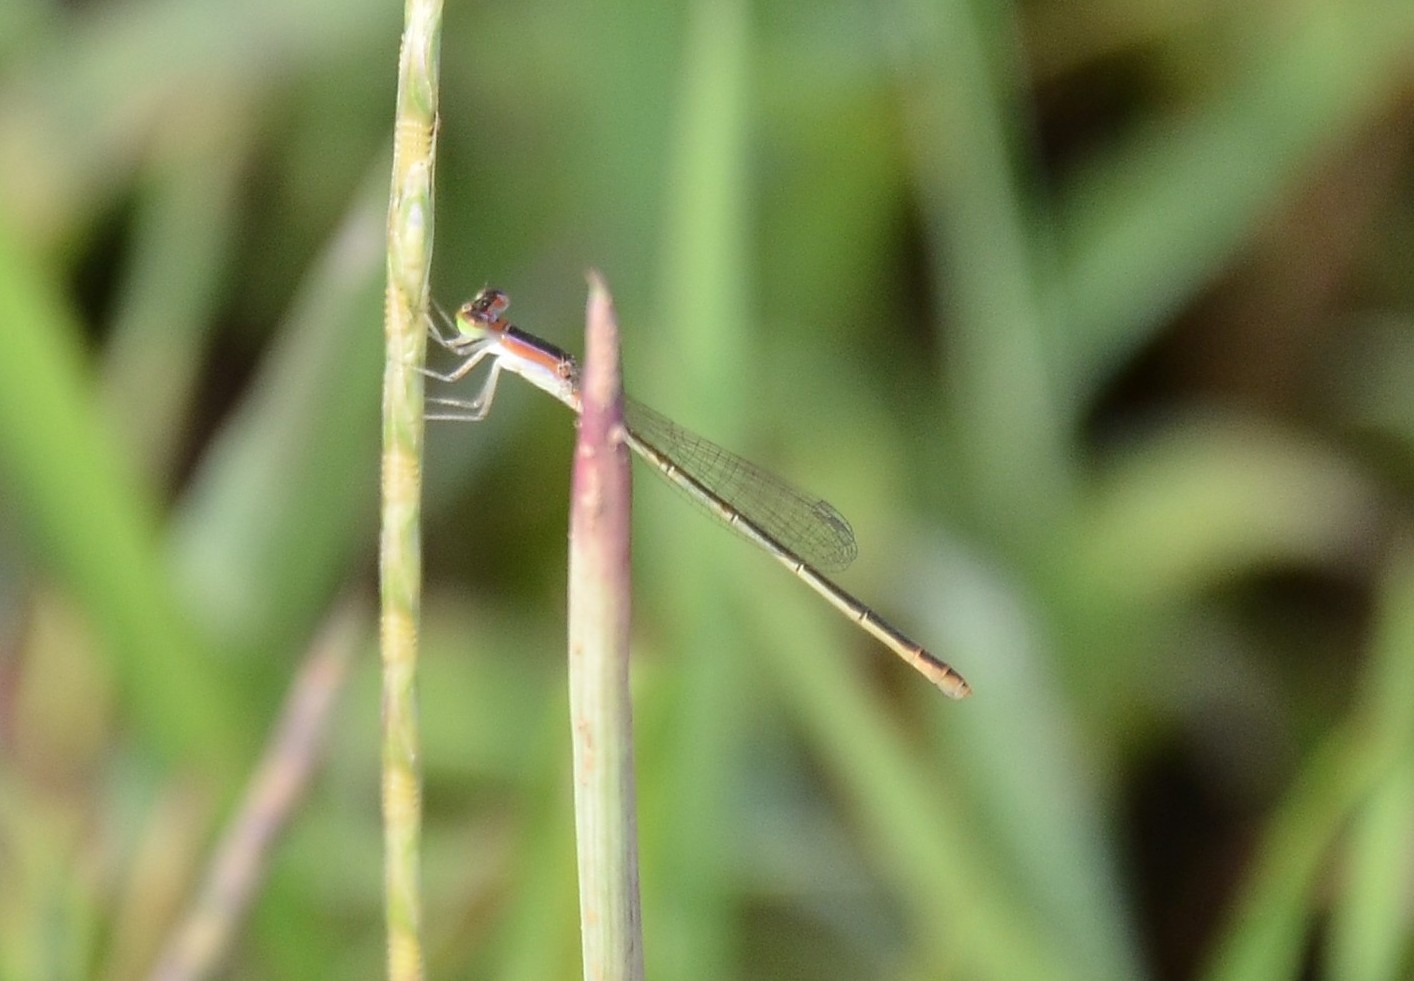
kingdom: Animalia
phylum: Arthropoda
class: Insecta
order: Odonata
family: Coenagrionidae
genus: Agriocnemis
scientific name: Agriocnemis pygmaea
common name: Pygmy wisp
